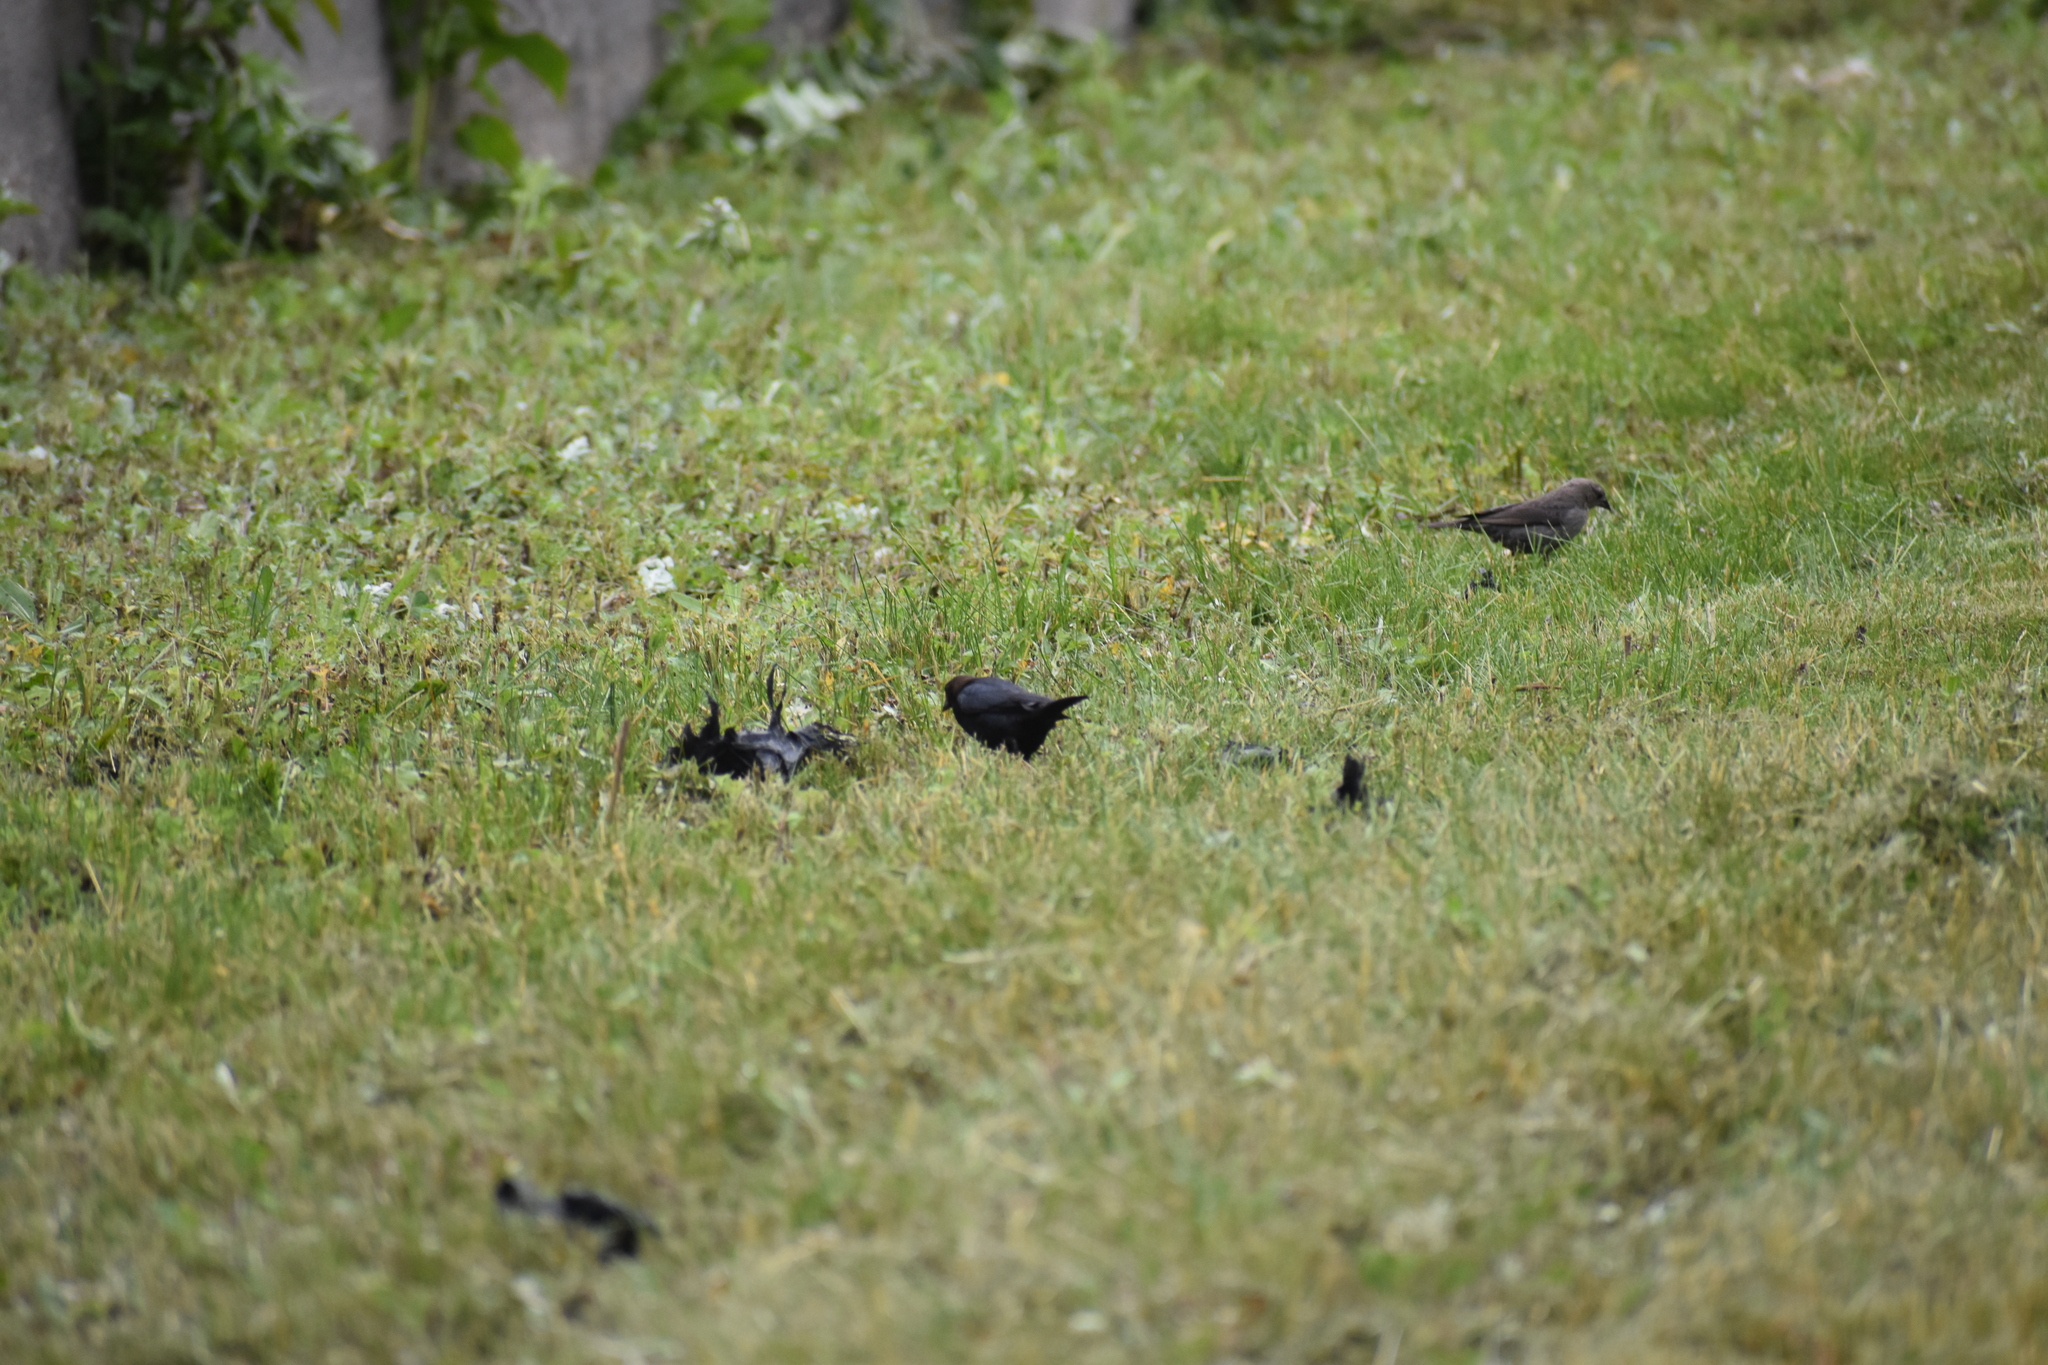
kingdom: Animalia
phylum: Chordata
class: Aves
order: Passeriformes
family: Icteridae
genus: Molothrus
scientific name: Molothrus ater
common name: Brown-headed cowbird
